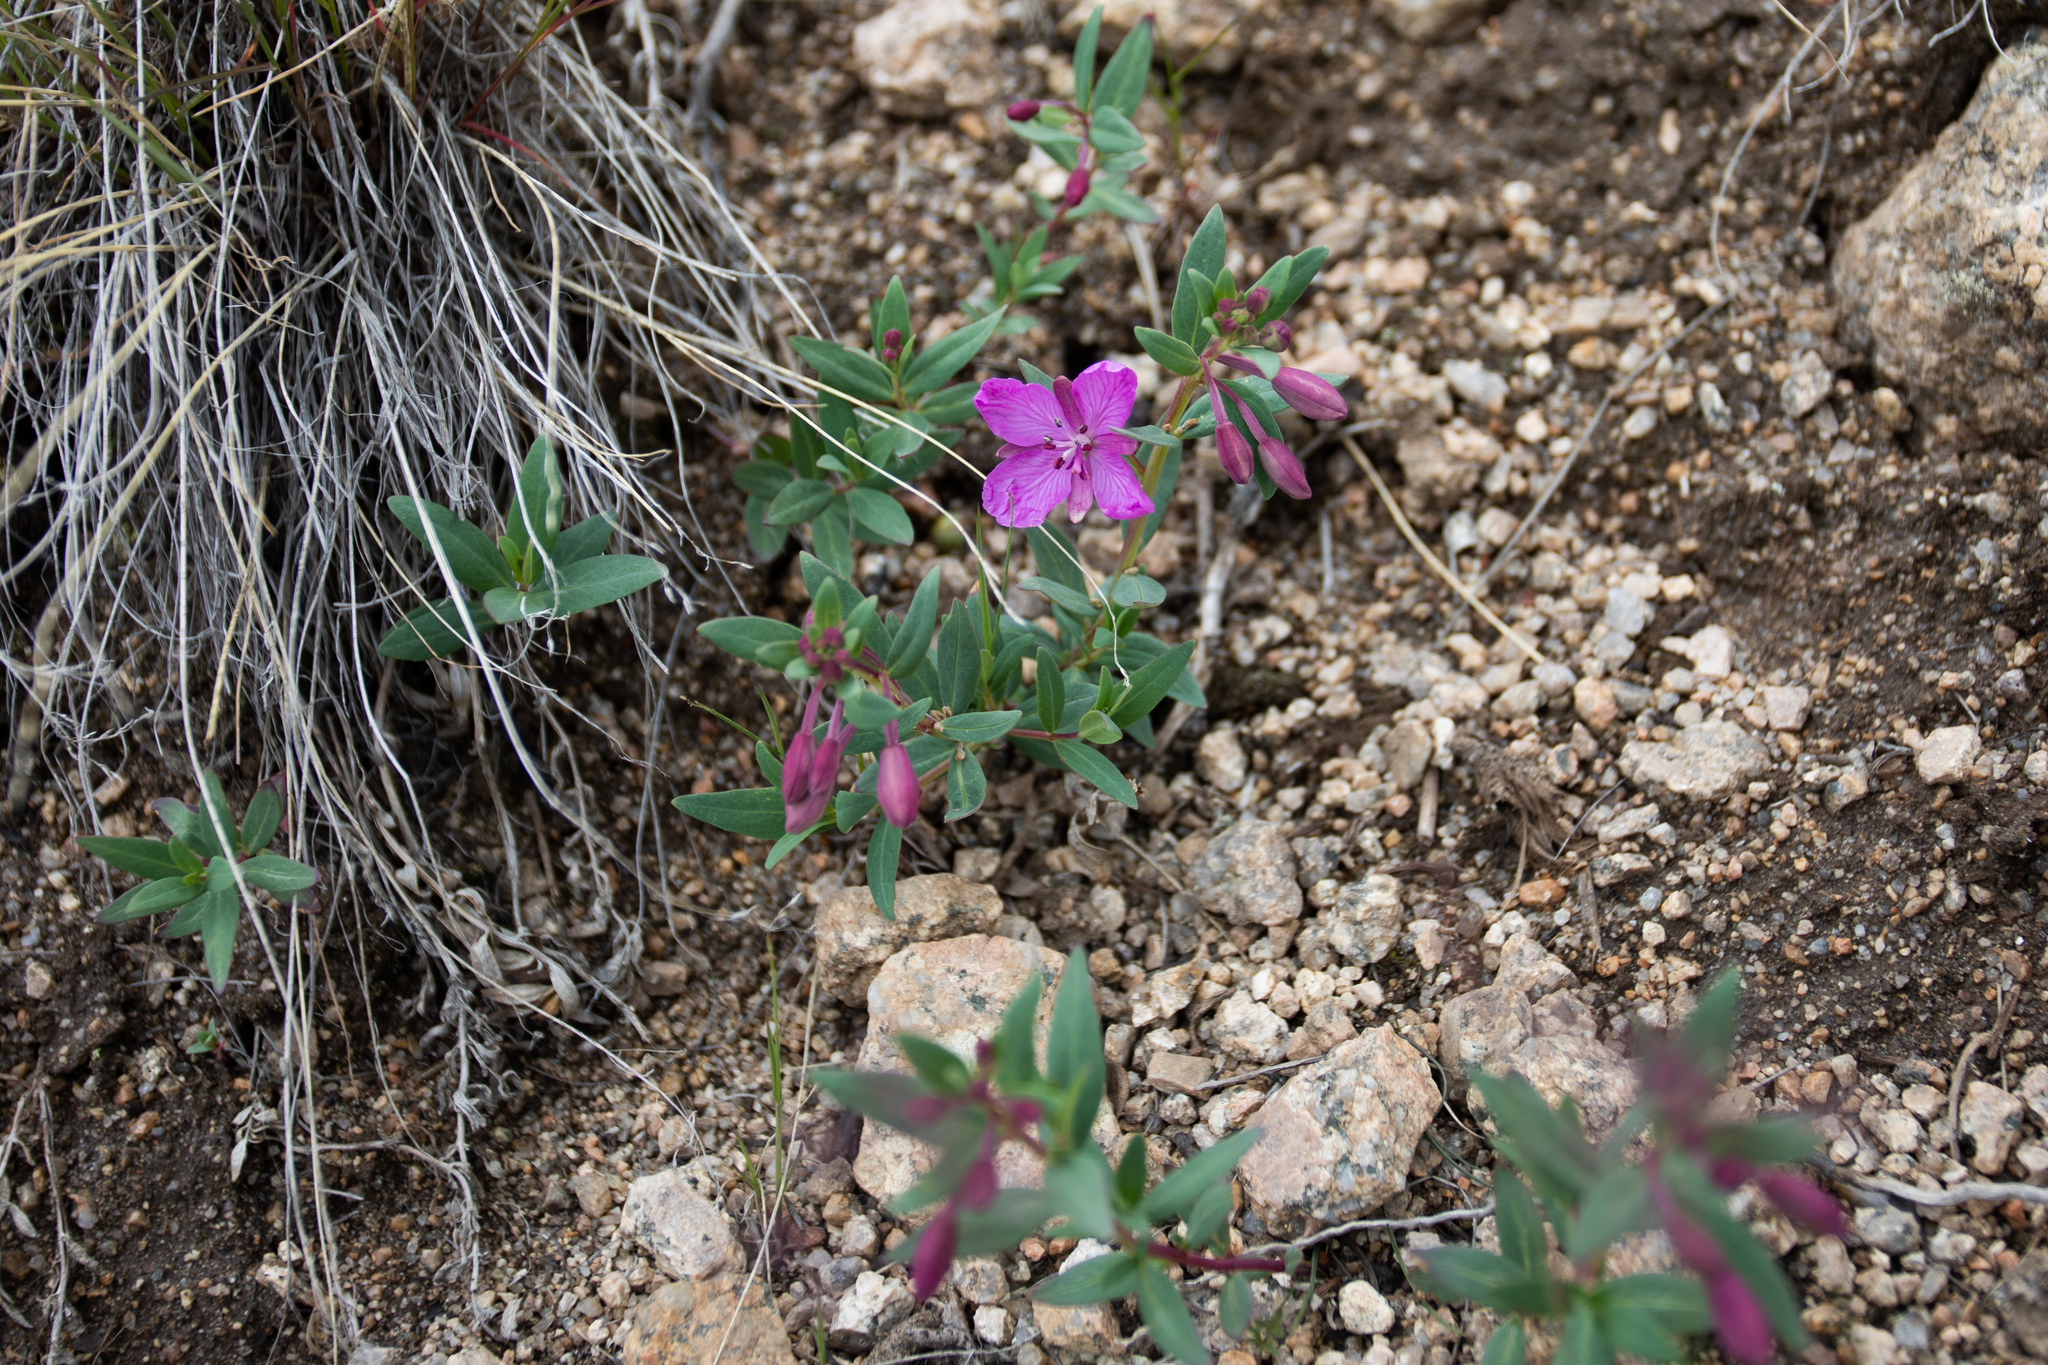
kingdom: Plantae
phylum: Tracheophyta
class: Magnoliopsida
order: Myrtales
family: Onagraceae
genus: Chamaenerion
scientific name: Chamaenerion latifolium
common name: Dwarf fireweed
